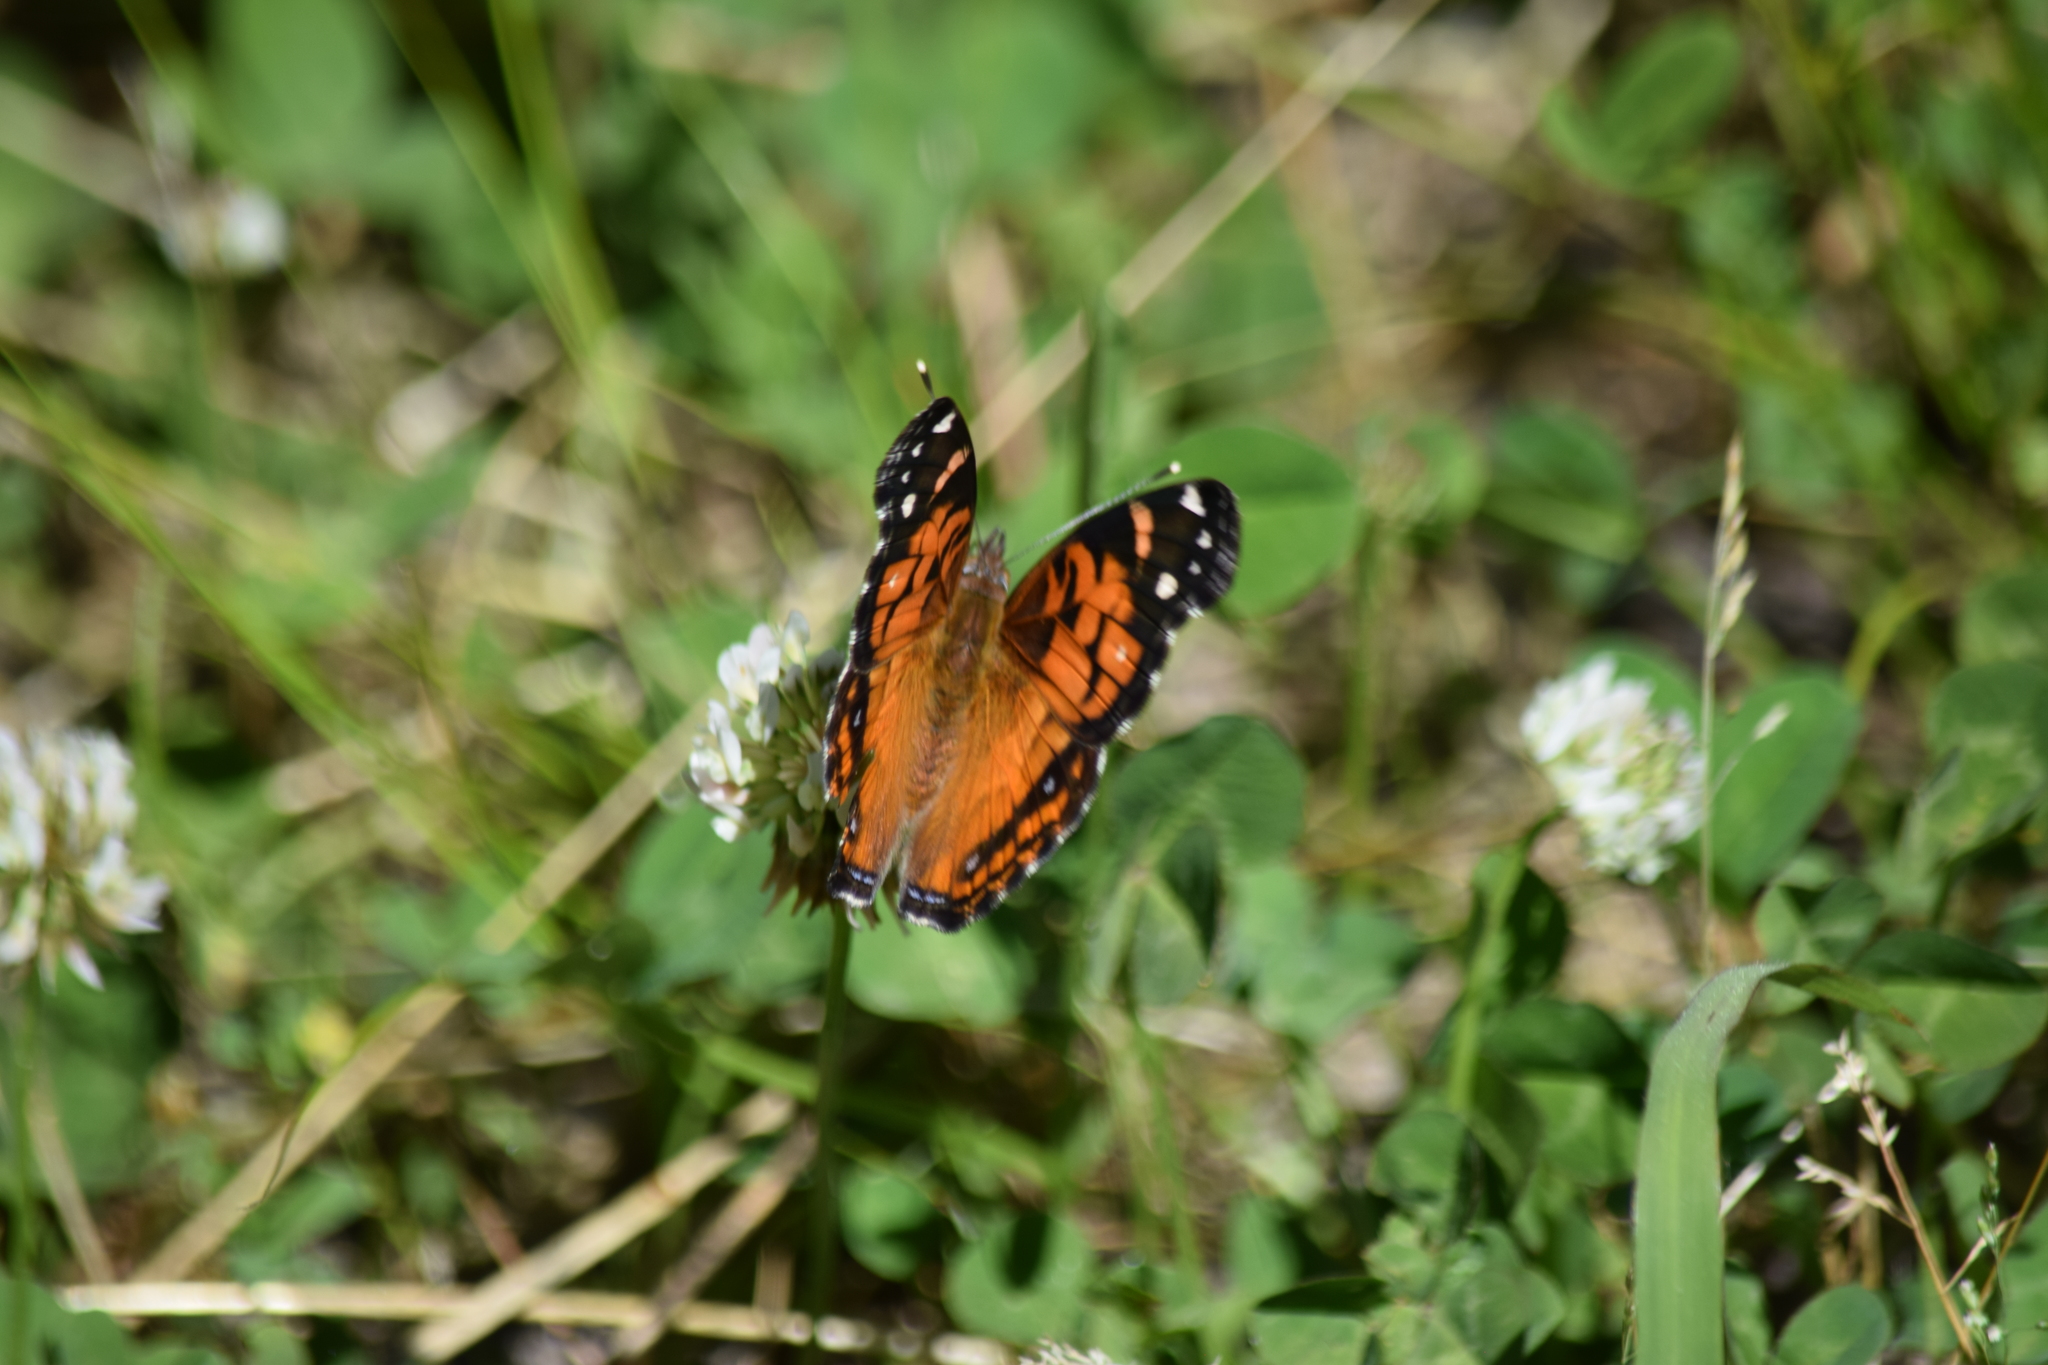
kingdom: Animalia
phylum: Arthropoda
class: Insecta
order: Lepidoptera
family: Nymphalidae
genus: Vanessa
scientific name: Vanessa virginiensis
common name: American lady
